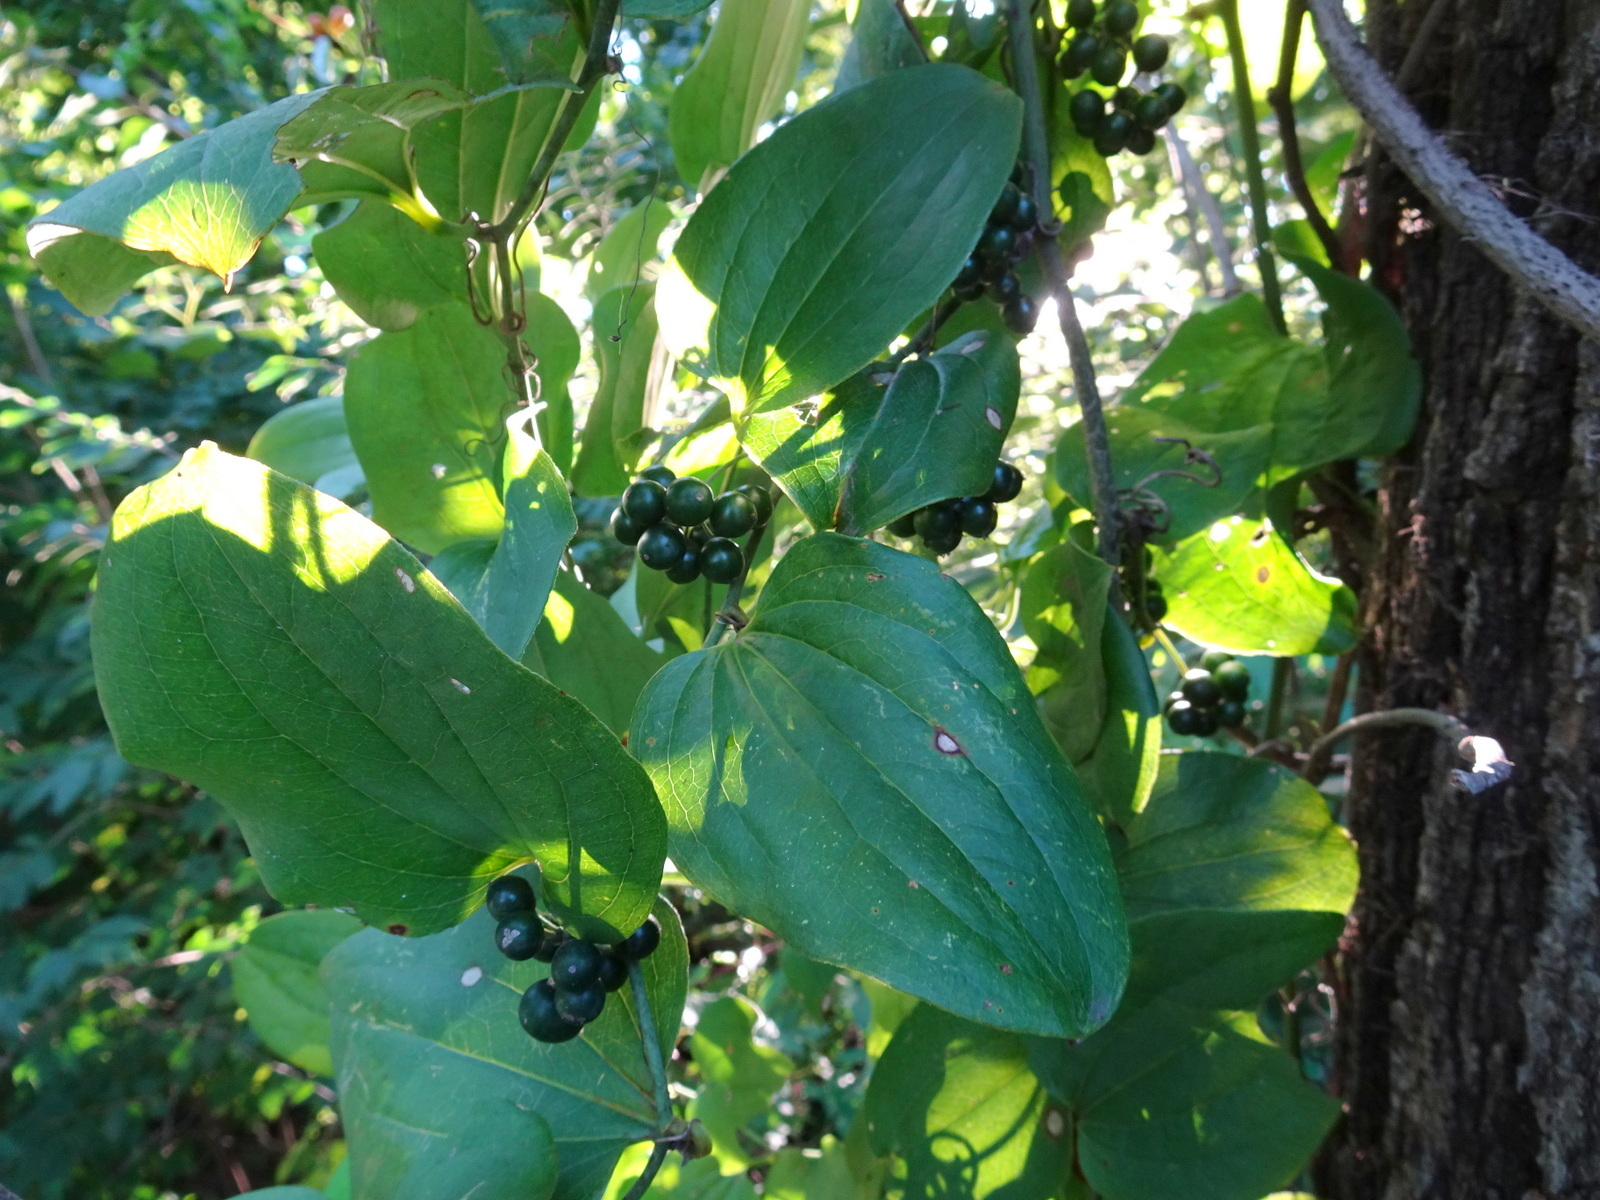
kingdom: Plantae
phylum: Tracheophyta
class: Liliopsida
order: Liliales
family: Smilacaceae
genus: Smilax
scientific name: Smilax tamnoides
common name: Hellfetter
